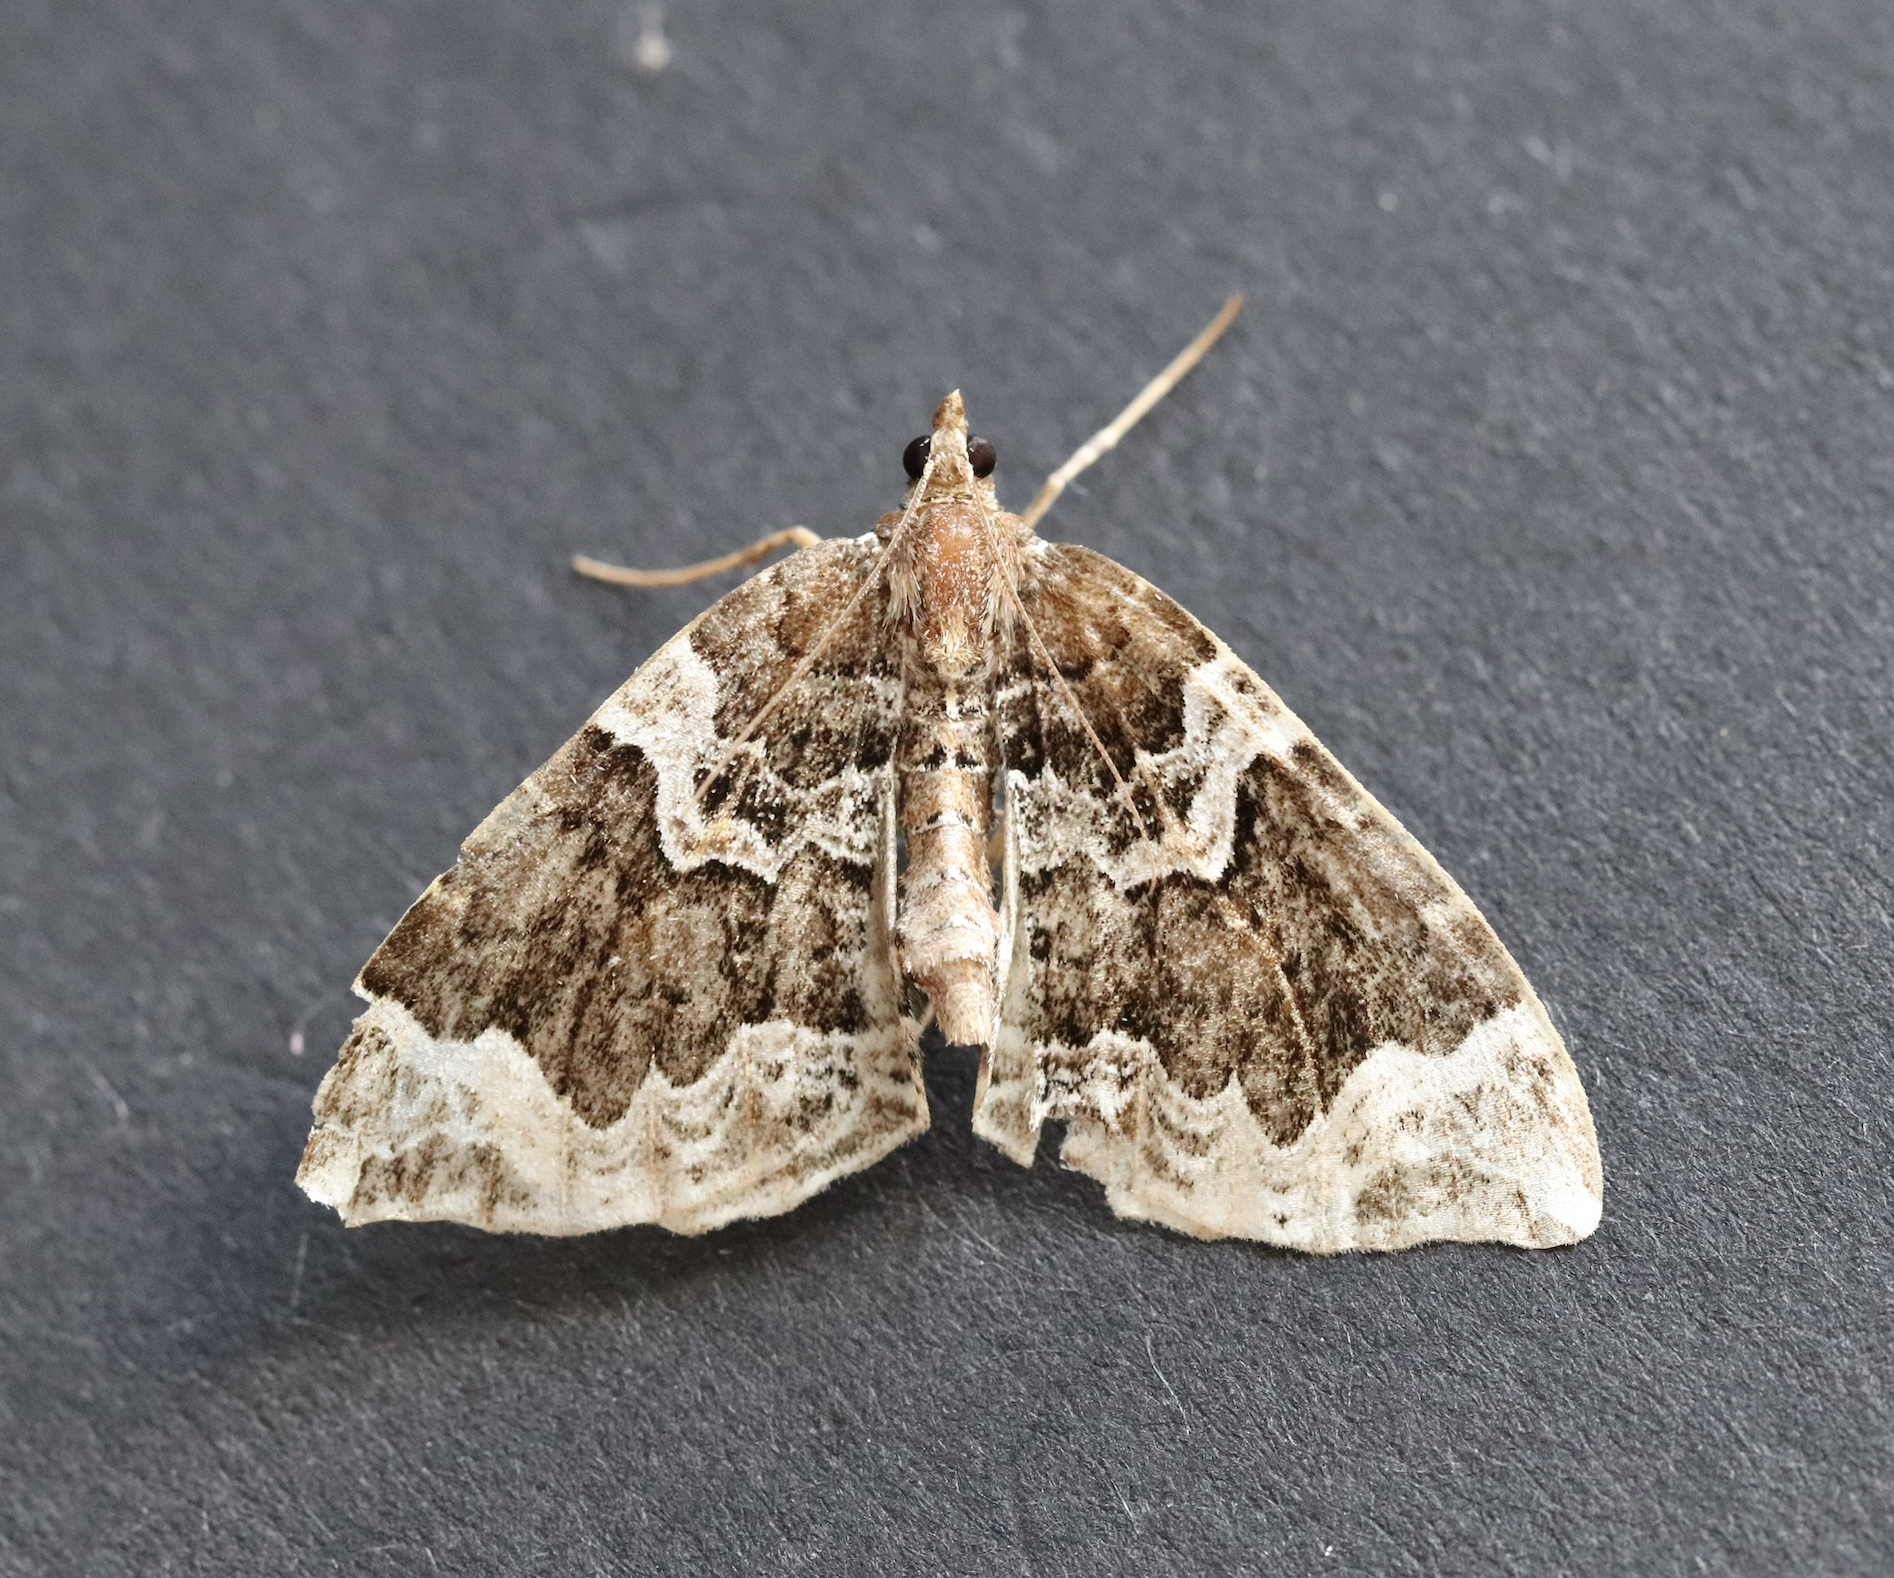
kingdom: Animalia
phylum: Arthropoda
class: Insecta
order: Lepidoptera
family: Geometridae
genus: Eulithis
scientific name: Eulithis prunata
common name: Phoenix
